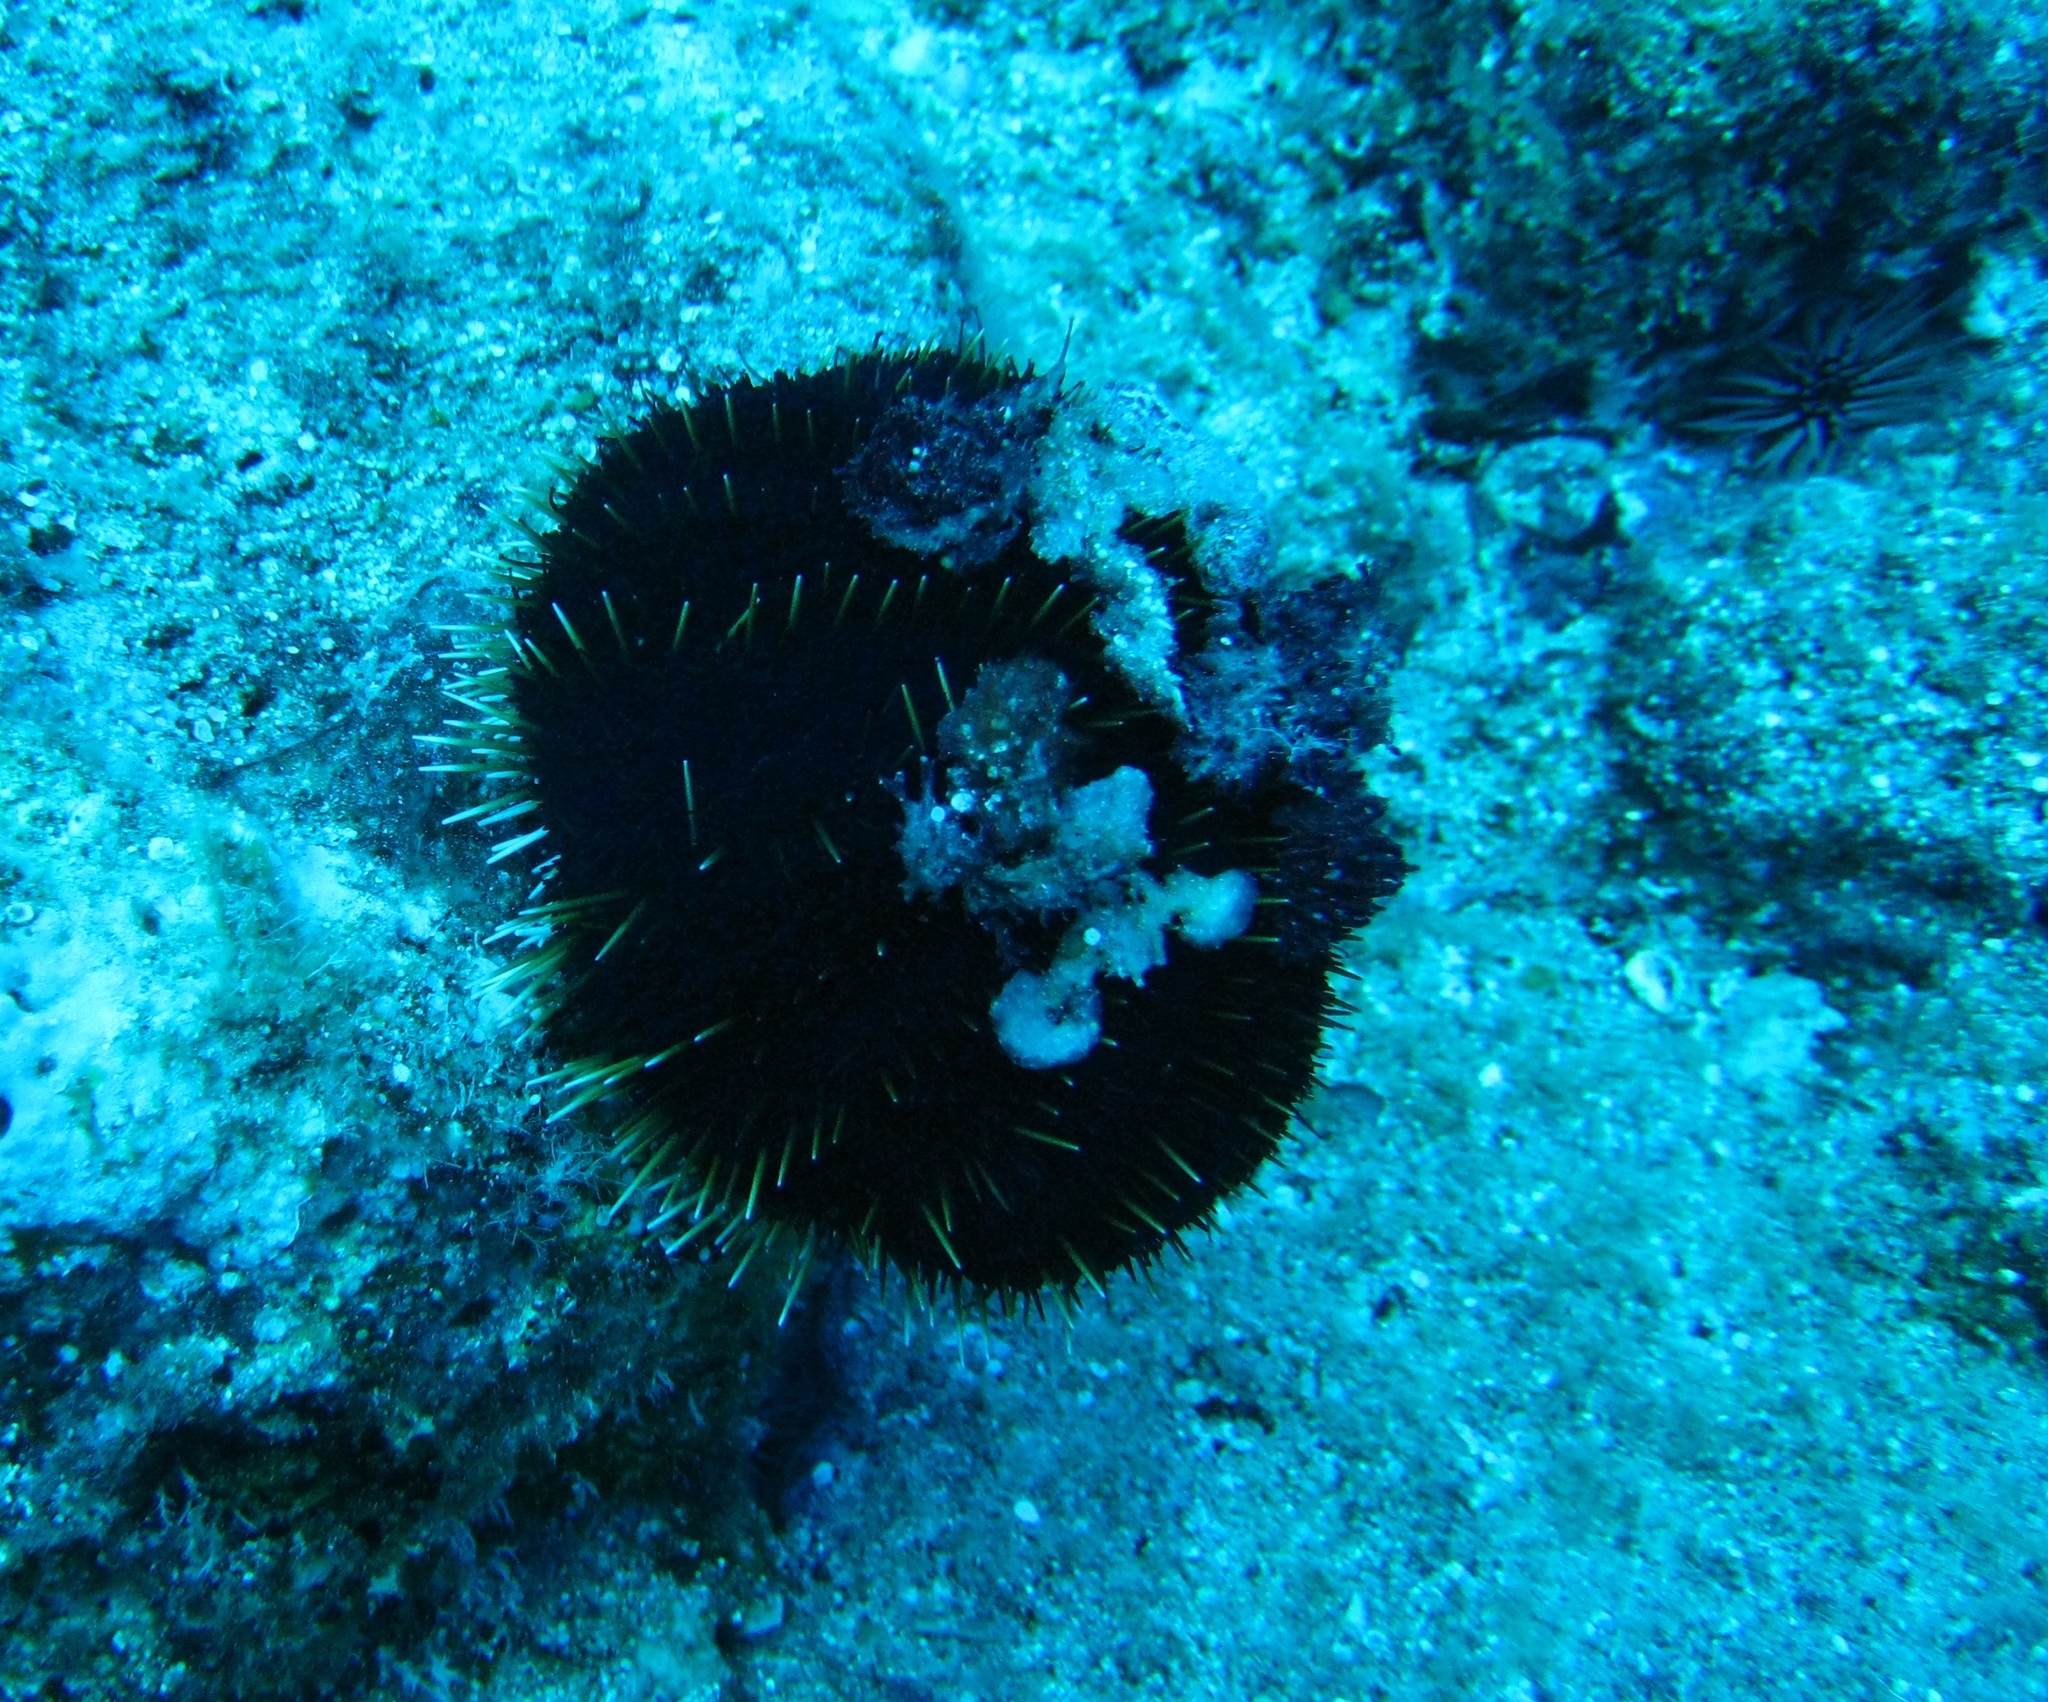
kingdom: Animalia
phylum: Echinodermata
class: Echinoidea
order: Camarodonta
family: Toxopneustidae
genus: Tripneustes
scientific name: Tripneustes gratilla
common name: Bischofsmützenseeigel
